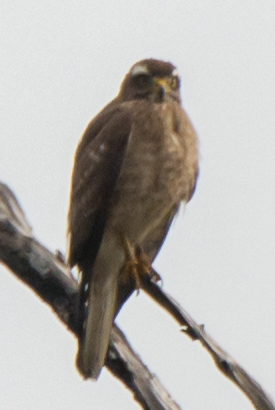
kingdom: Animalia
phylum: Chordata
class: Aves
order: Accipitriformes
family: Accipitridae
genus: Butastur
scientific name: Butastur indicus
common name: Grey-faced buzzard
